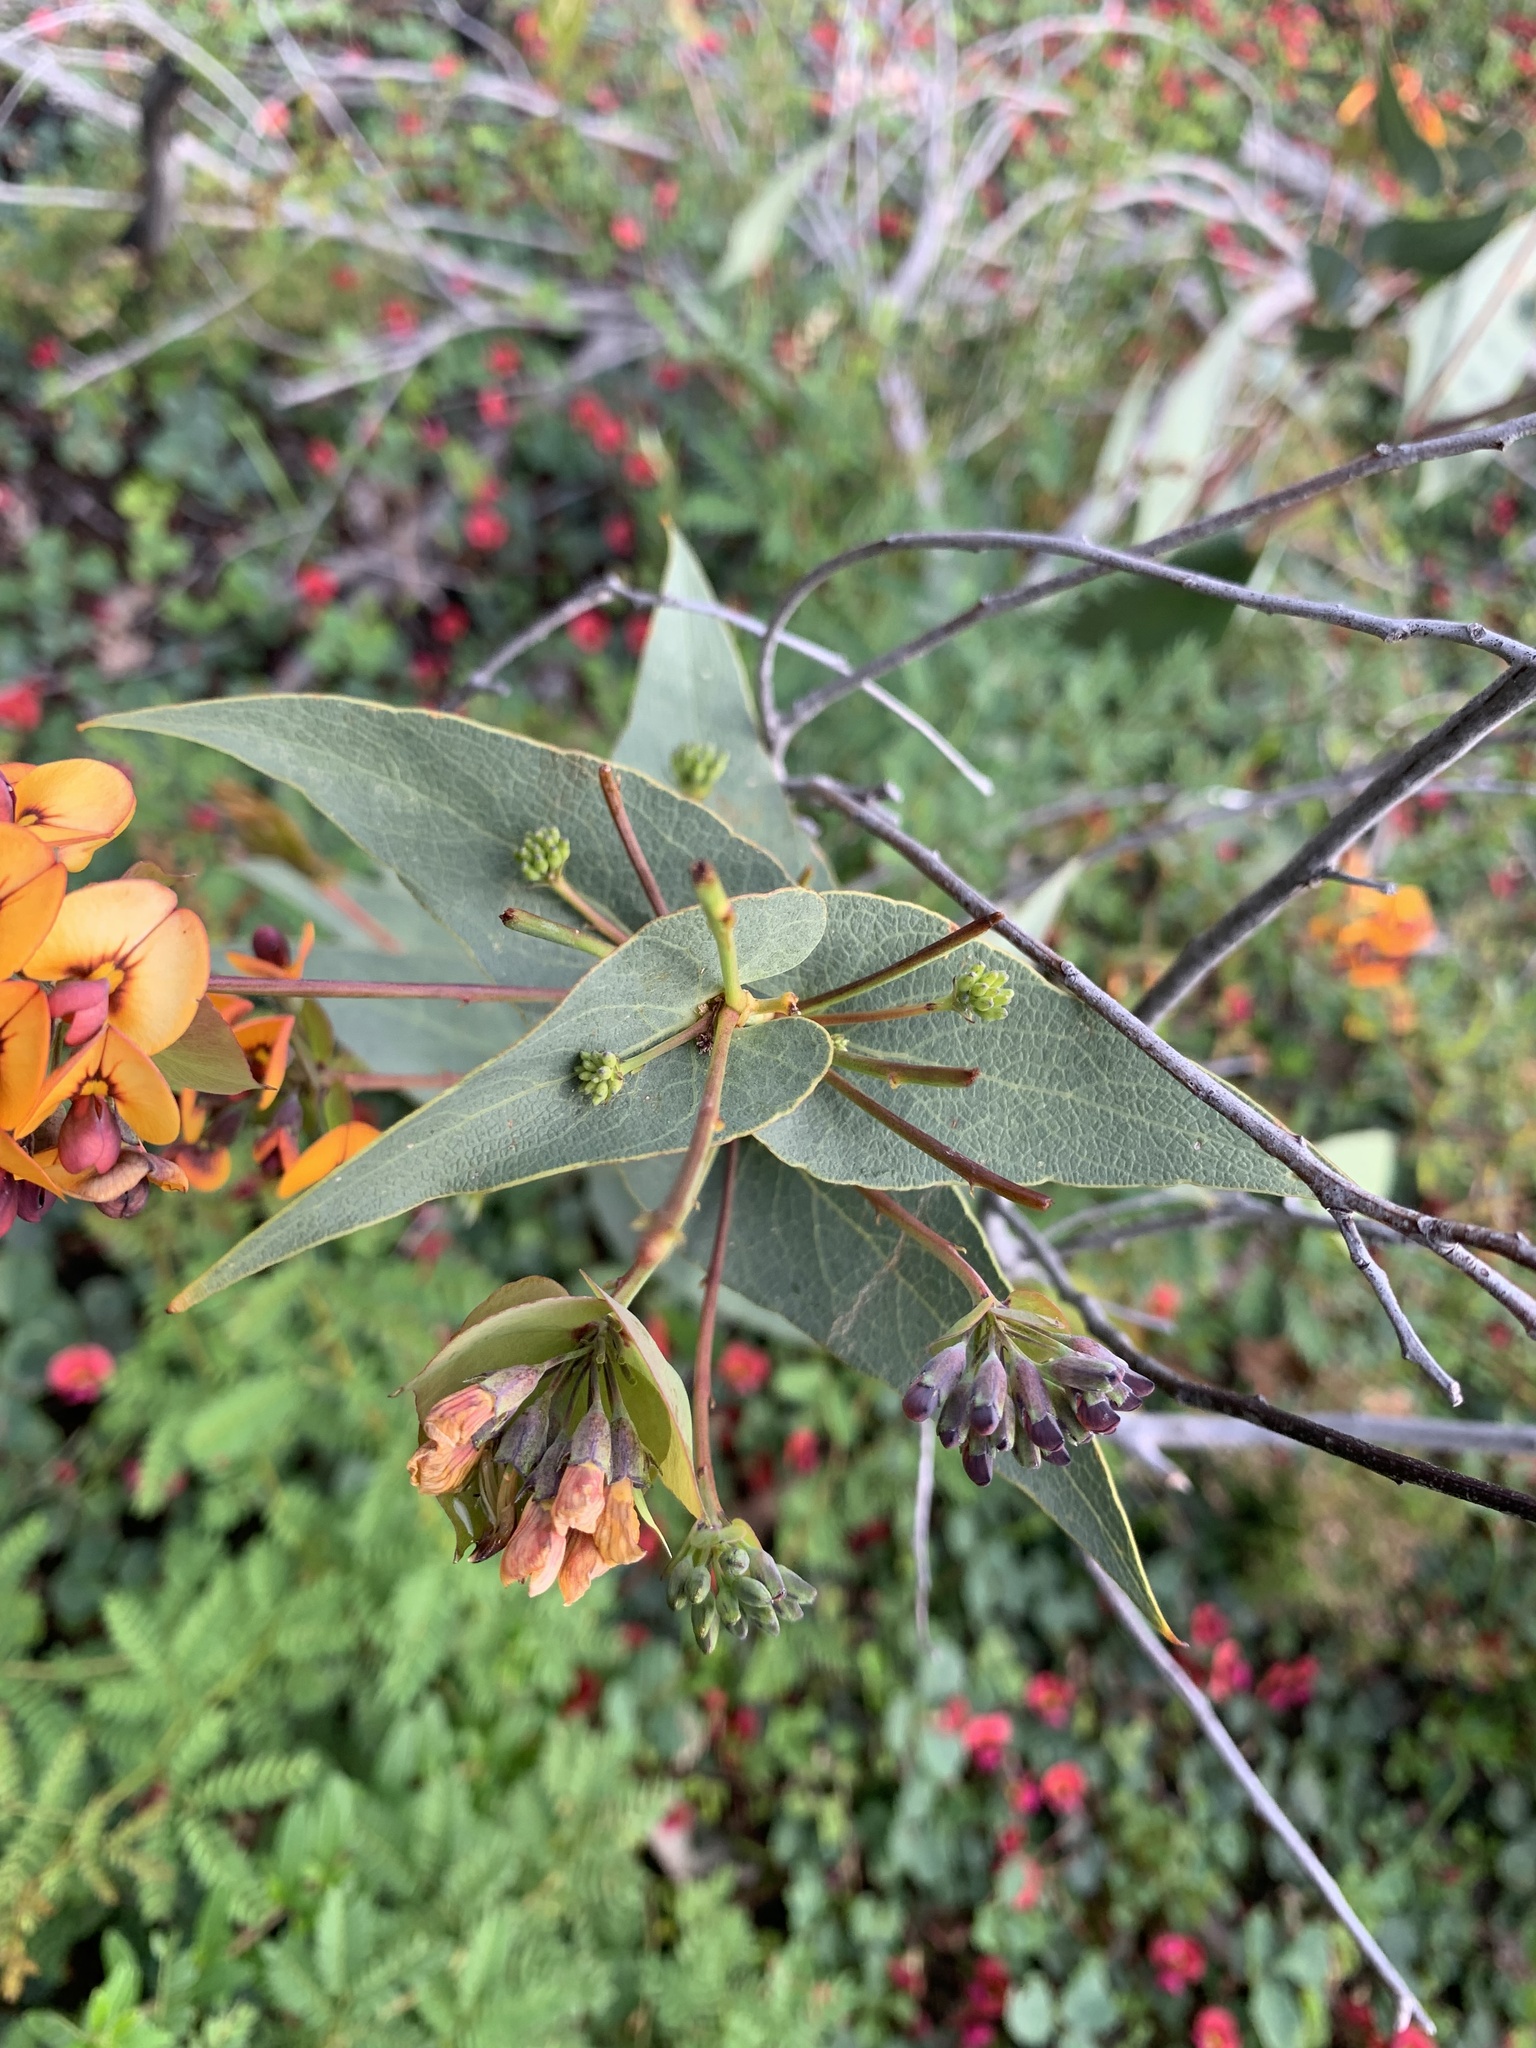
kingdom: Plantae
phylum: Tracheophyta
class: Magnoliopsida
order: Fabales
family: Fabaceae
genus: Daviesia
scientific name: Daviesia cordata
